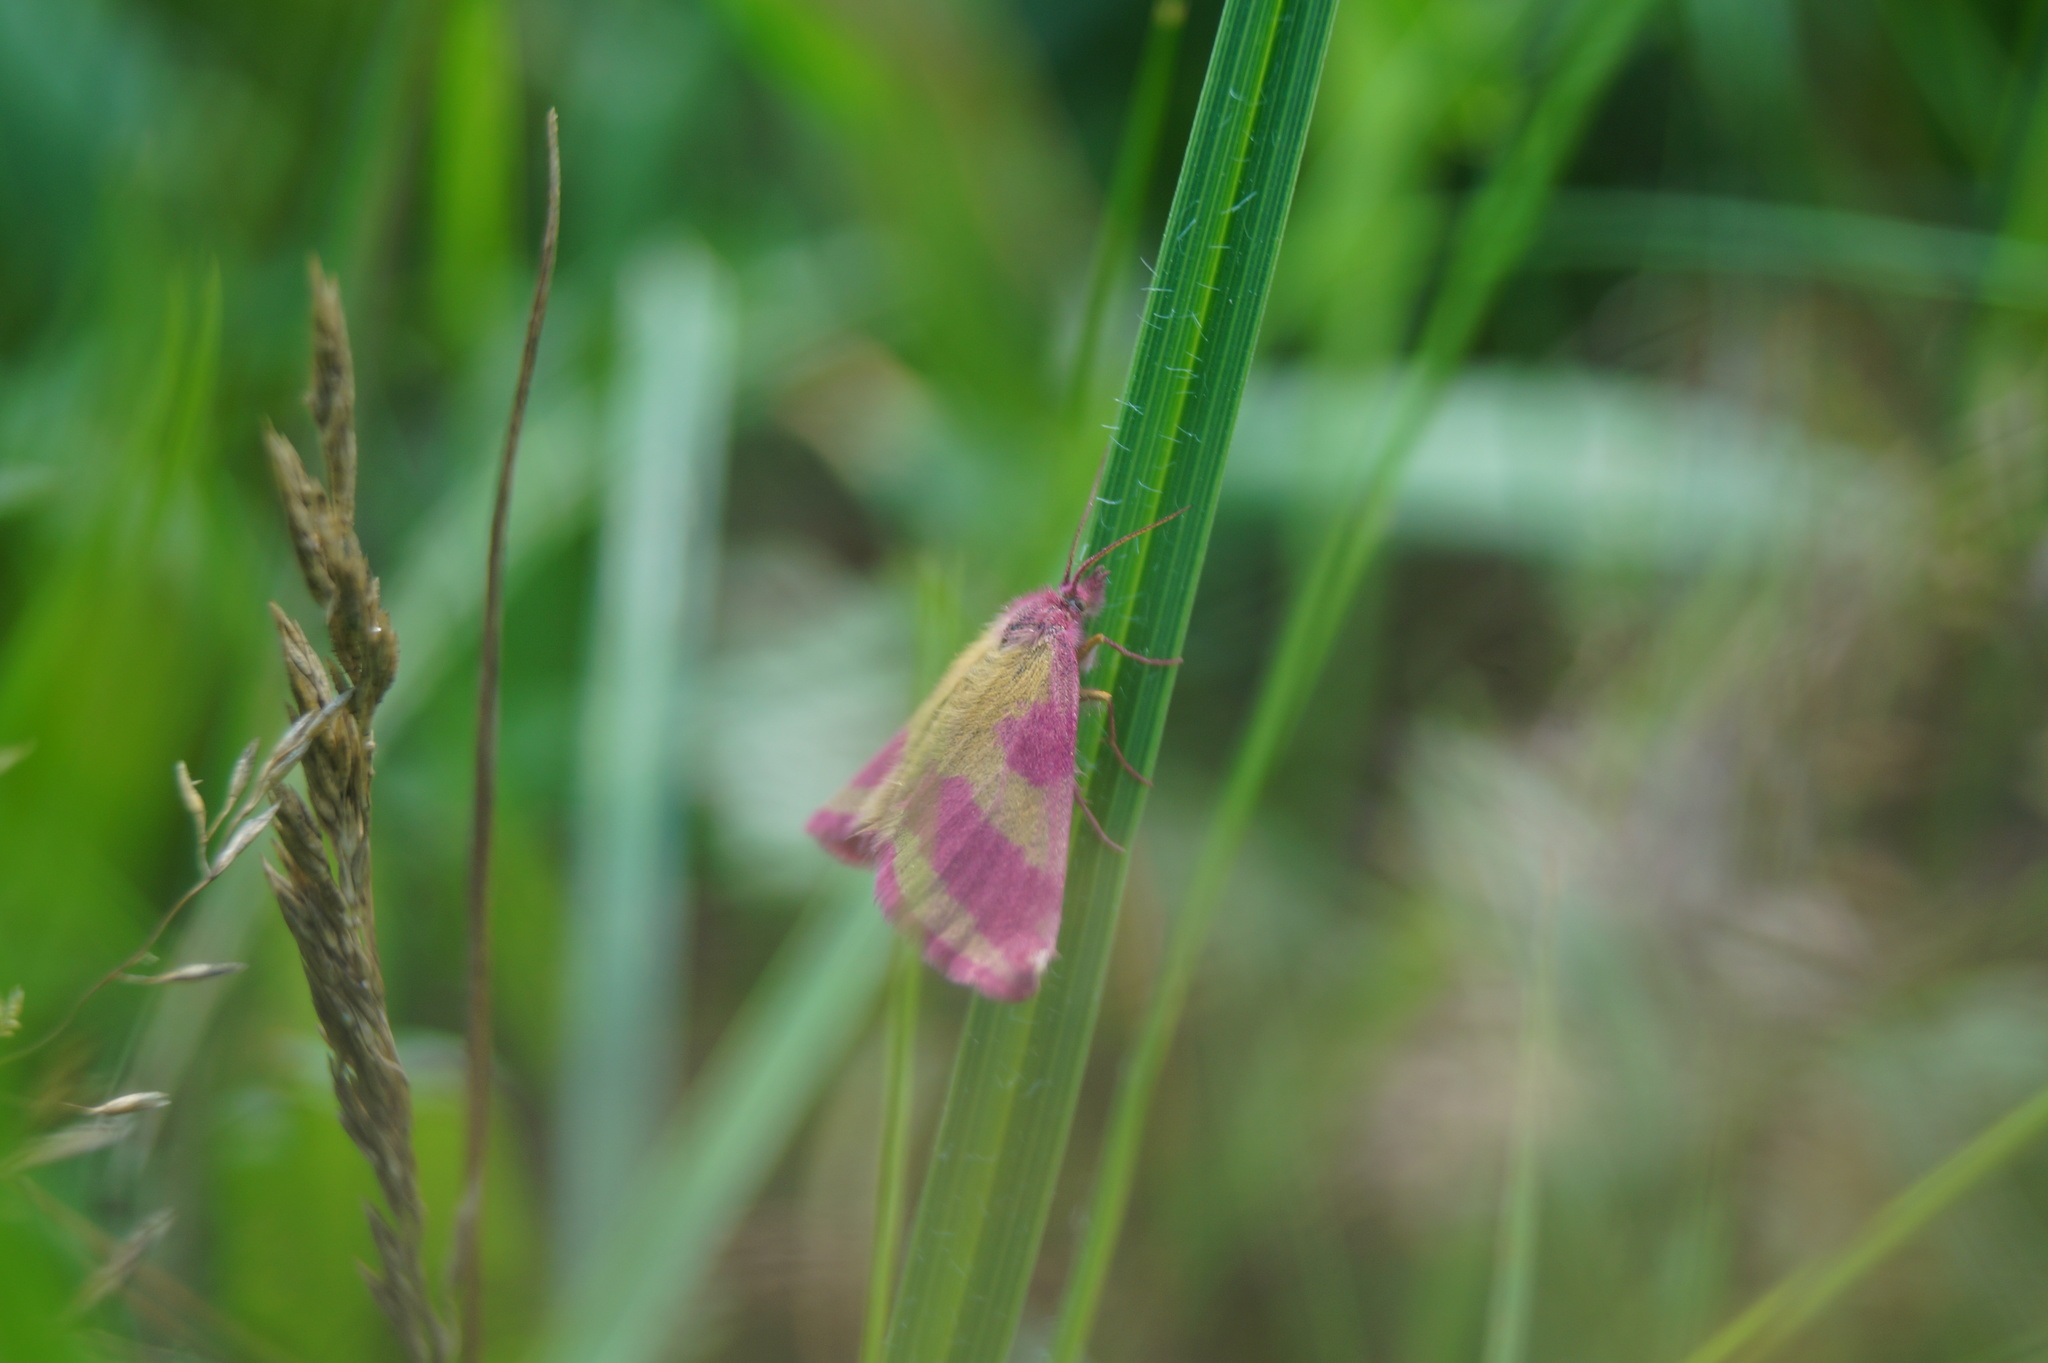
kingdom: Animalia
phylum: Arthropoda
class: Insecta
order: Lepidoptera
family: Geometridae
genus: Lythria
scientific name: Lythria cruentaria
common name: Purple-barred yellow
